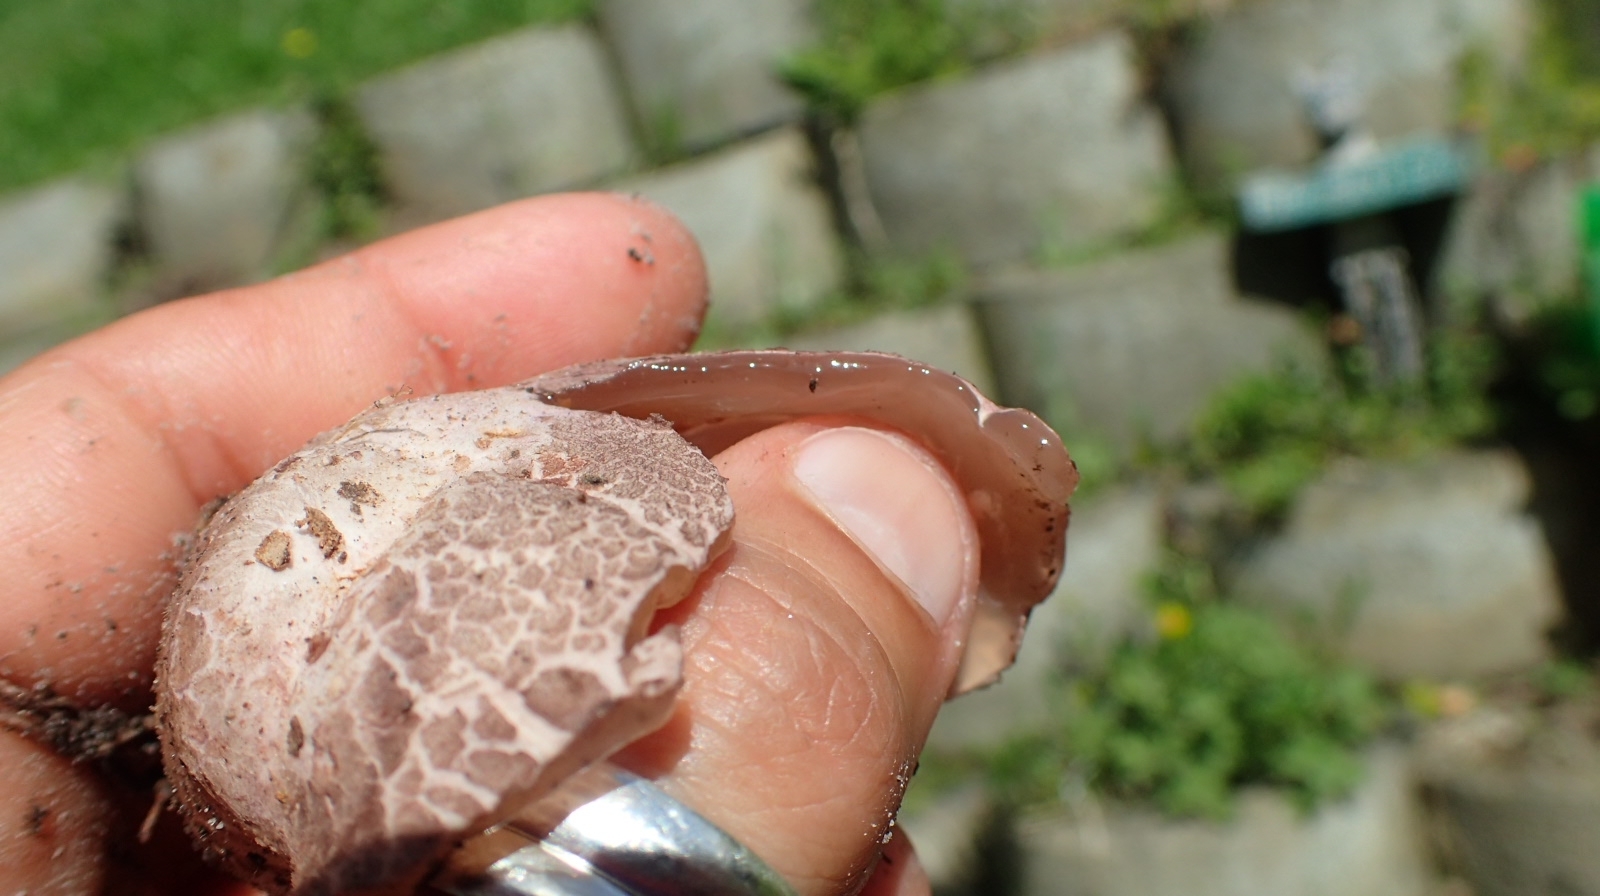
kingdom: Fungi
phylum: Basidiomycota
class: Agaricomycetes
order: Phallales
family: Phallaceae
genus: Clathrus
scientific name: Clathrus archeri
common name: Devil's fingers
